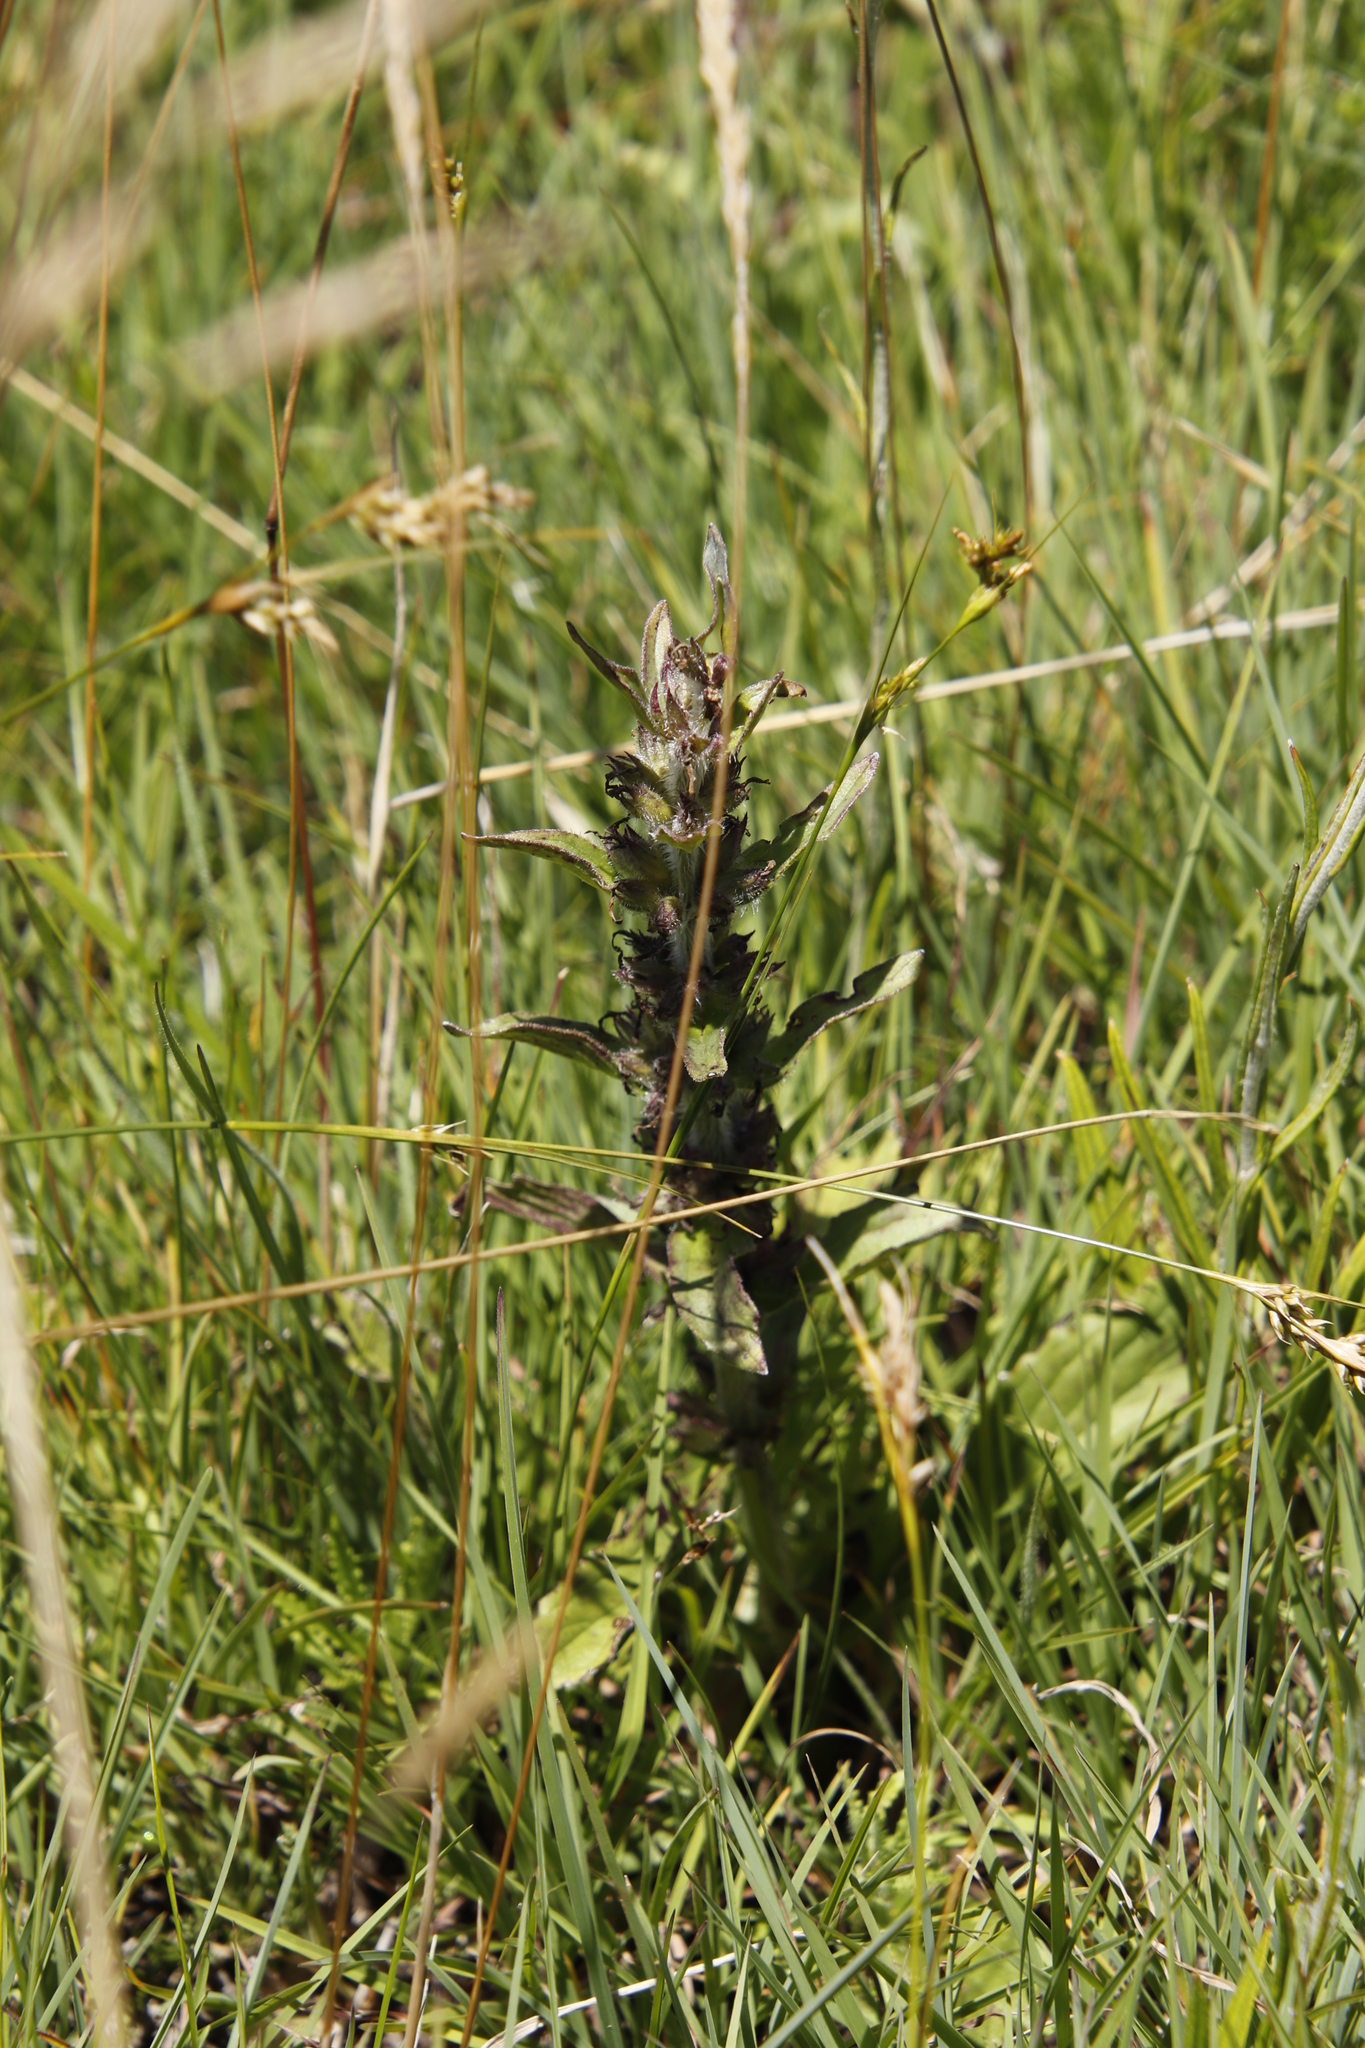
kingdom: Plantae
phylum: Tracheophyta
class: Magnoliopsida
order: Lamiales
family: Lamiaceae
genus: Ajuga
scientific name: Ajuga ophrydis
